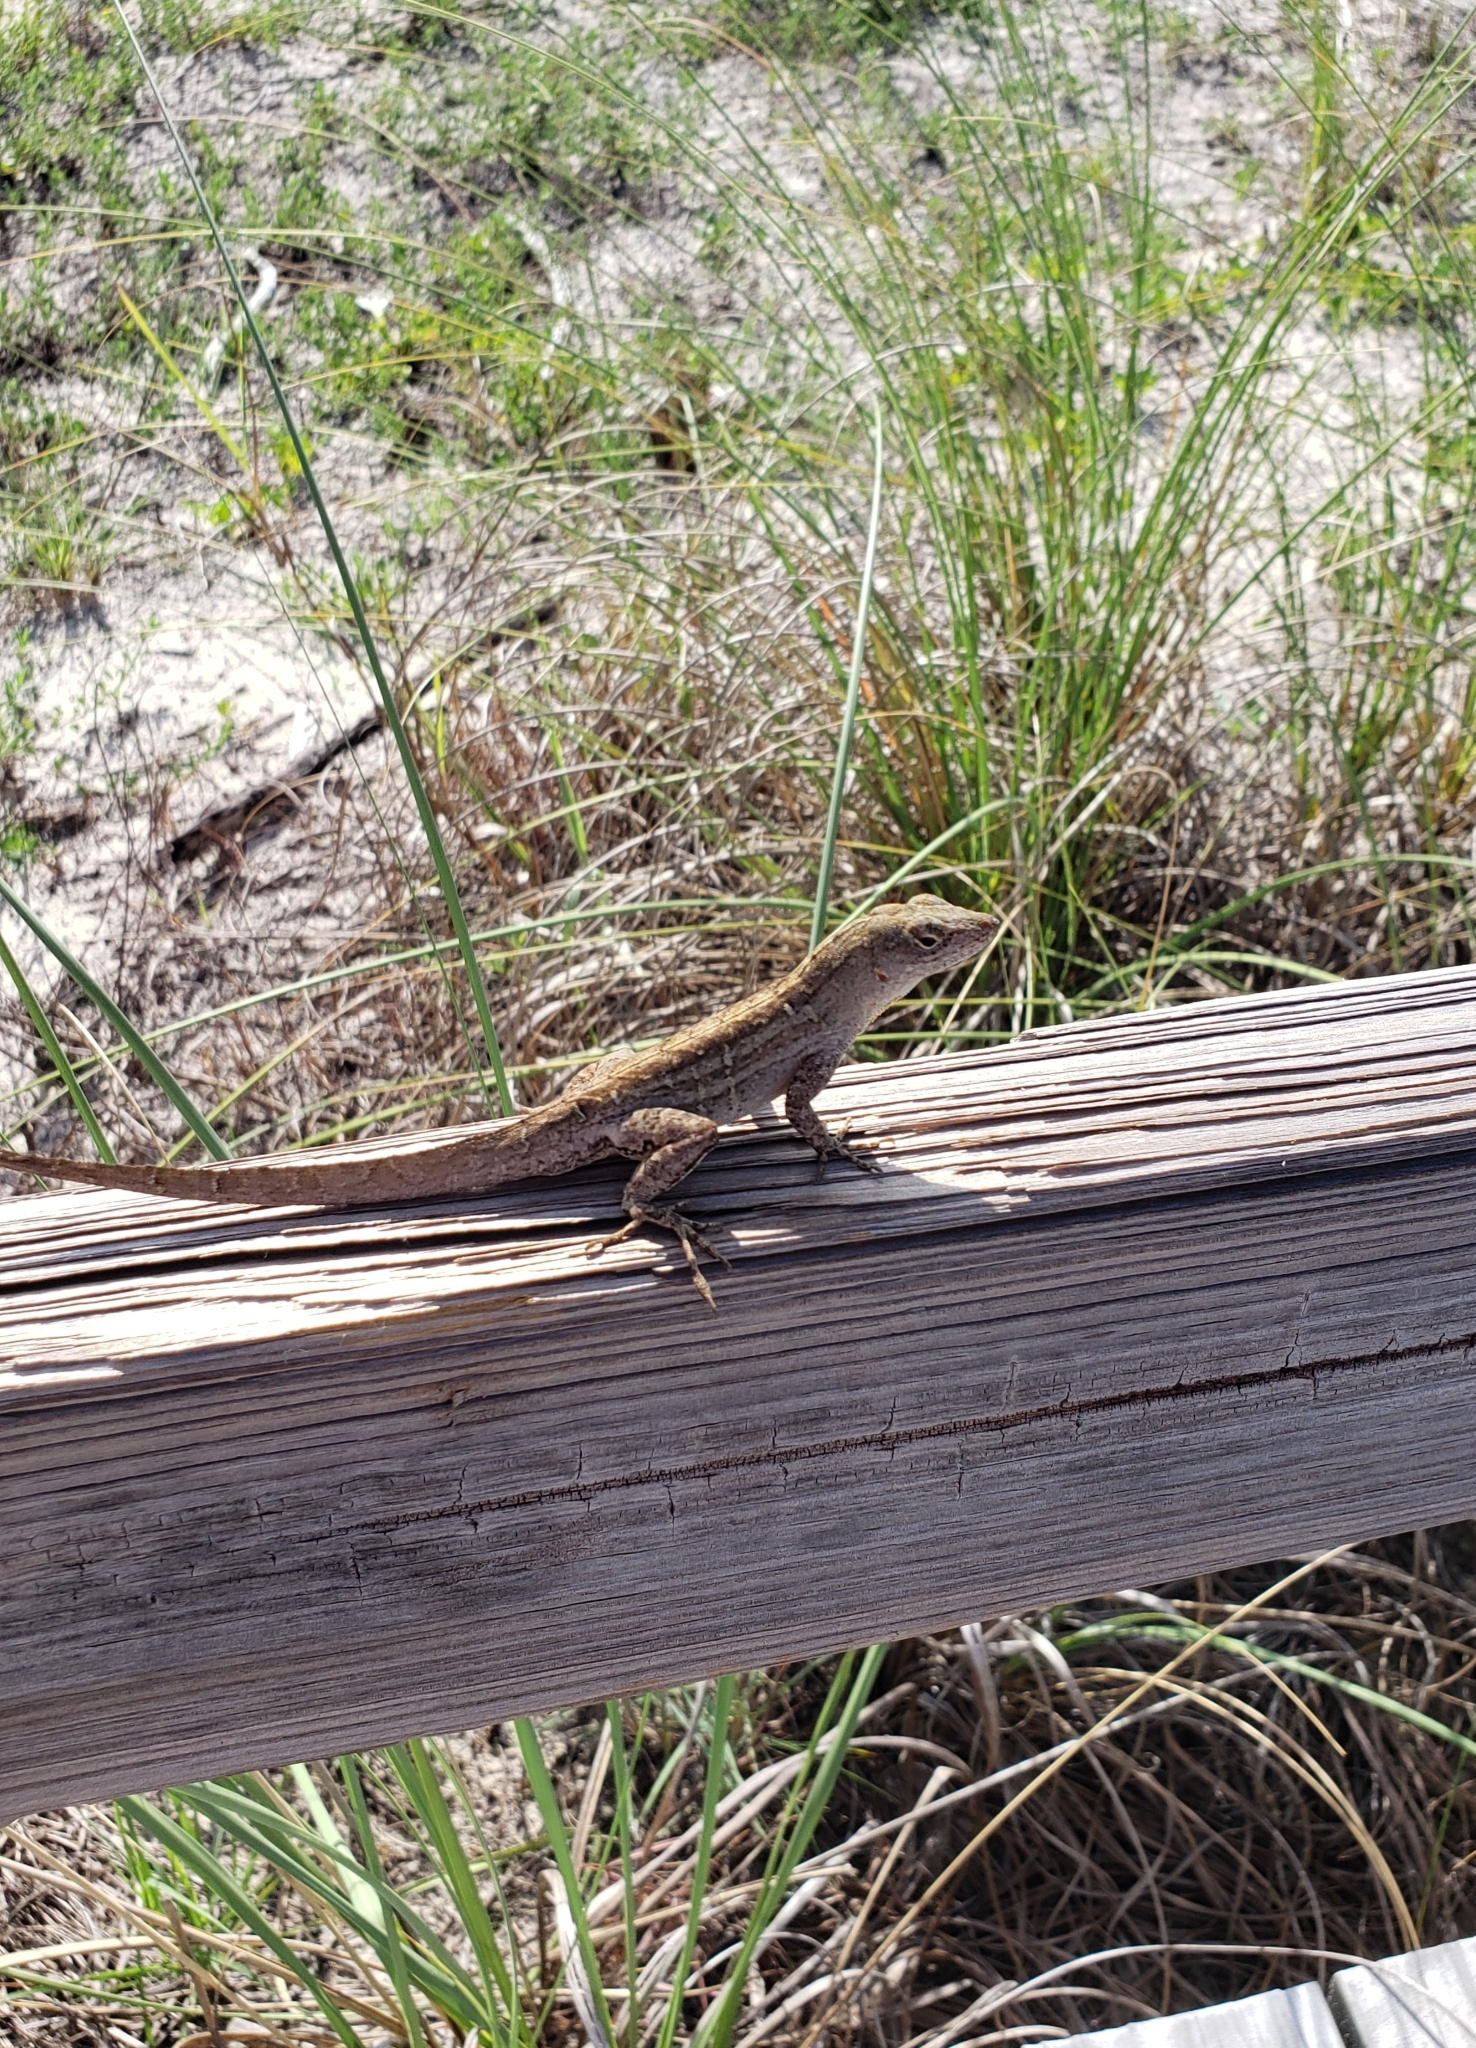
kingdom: Animalia
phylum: Chordata
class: Squamata
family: Dactyloidae
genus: Anolis
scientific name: Anolis sagrei
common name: Brown anole
